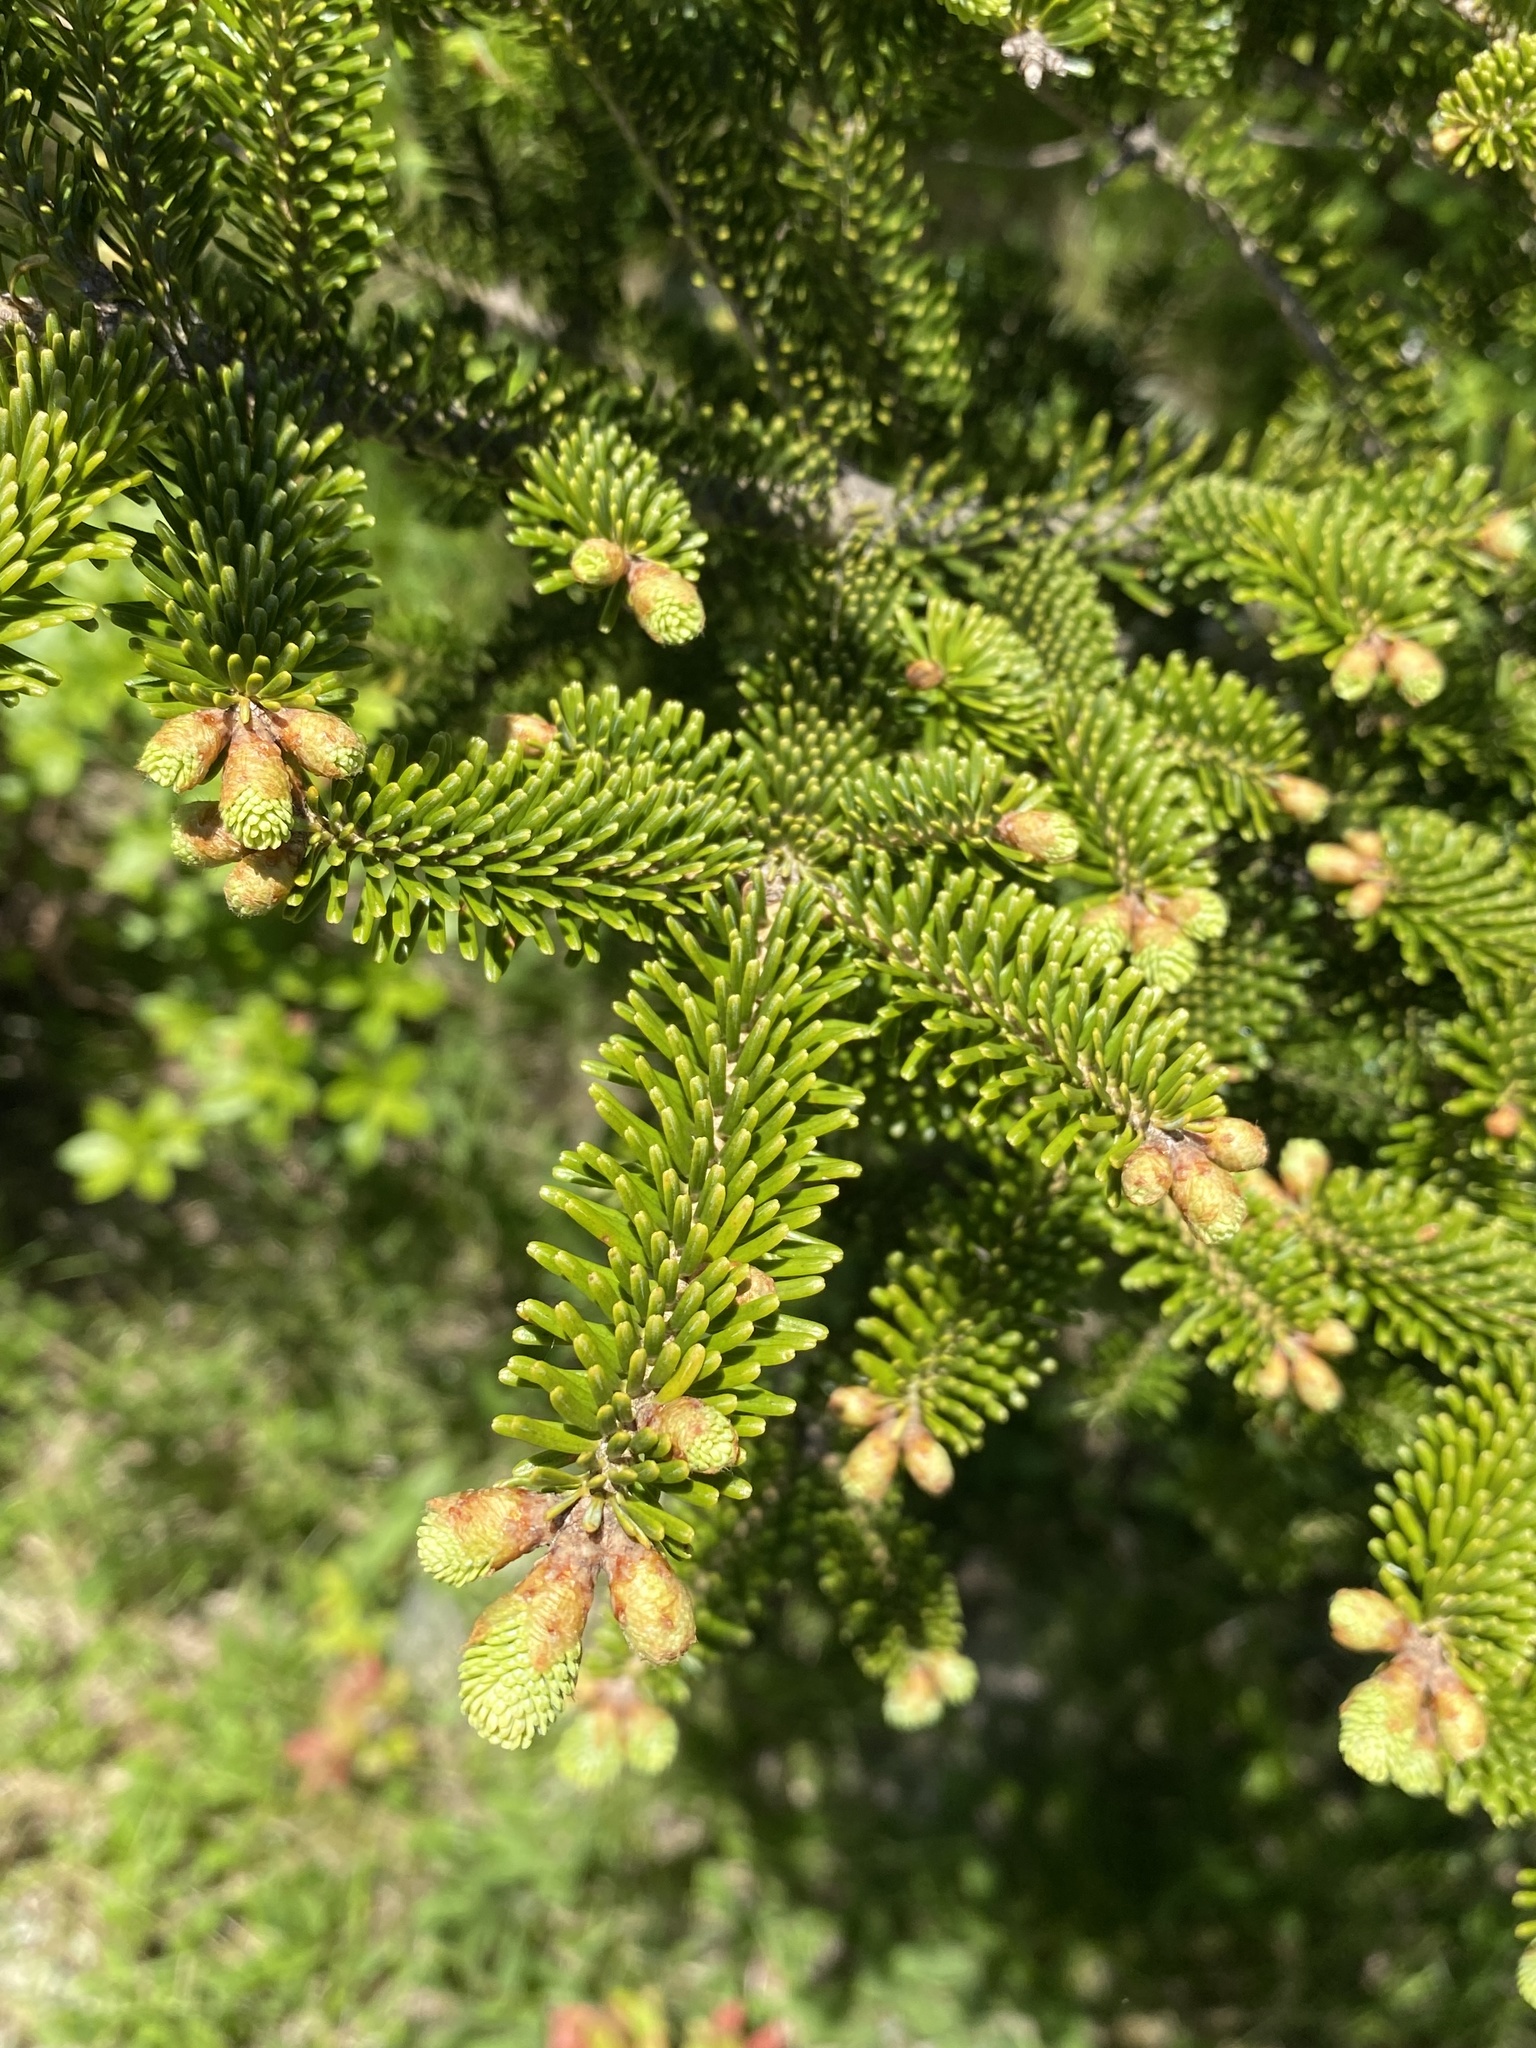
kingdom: Plantae
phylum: Tracheophyta
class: Pinopsida
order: Pinales
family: Pinaceae
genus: Abies
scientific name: Abies fraseri
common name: Fraser fir
